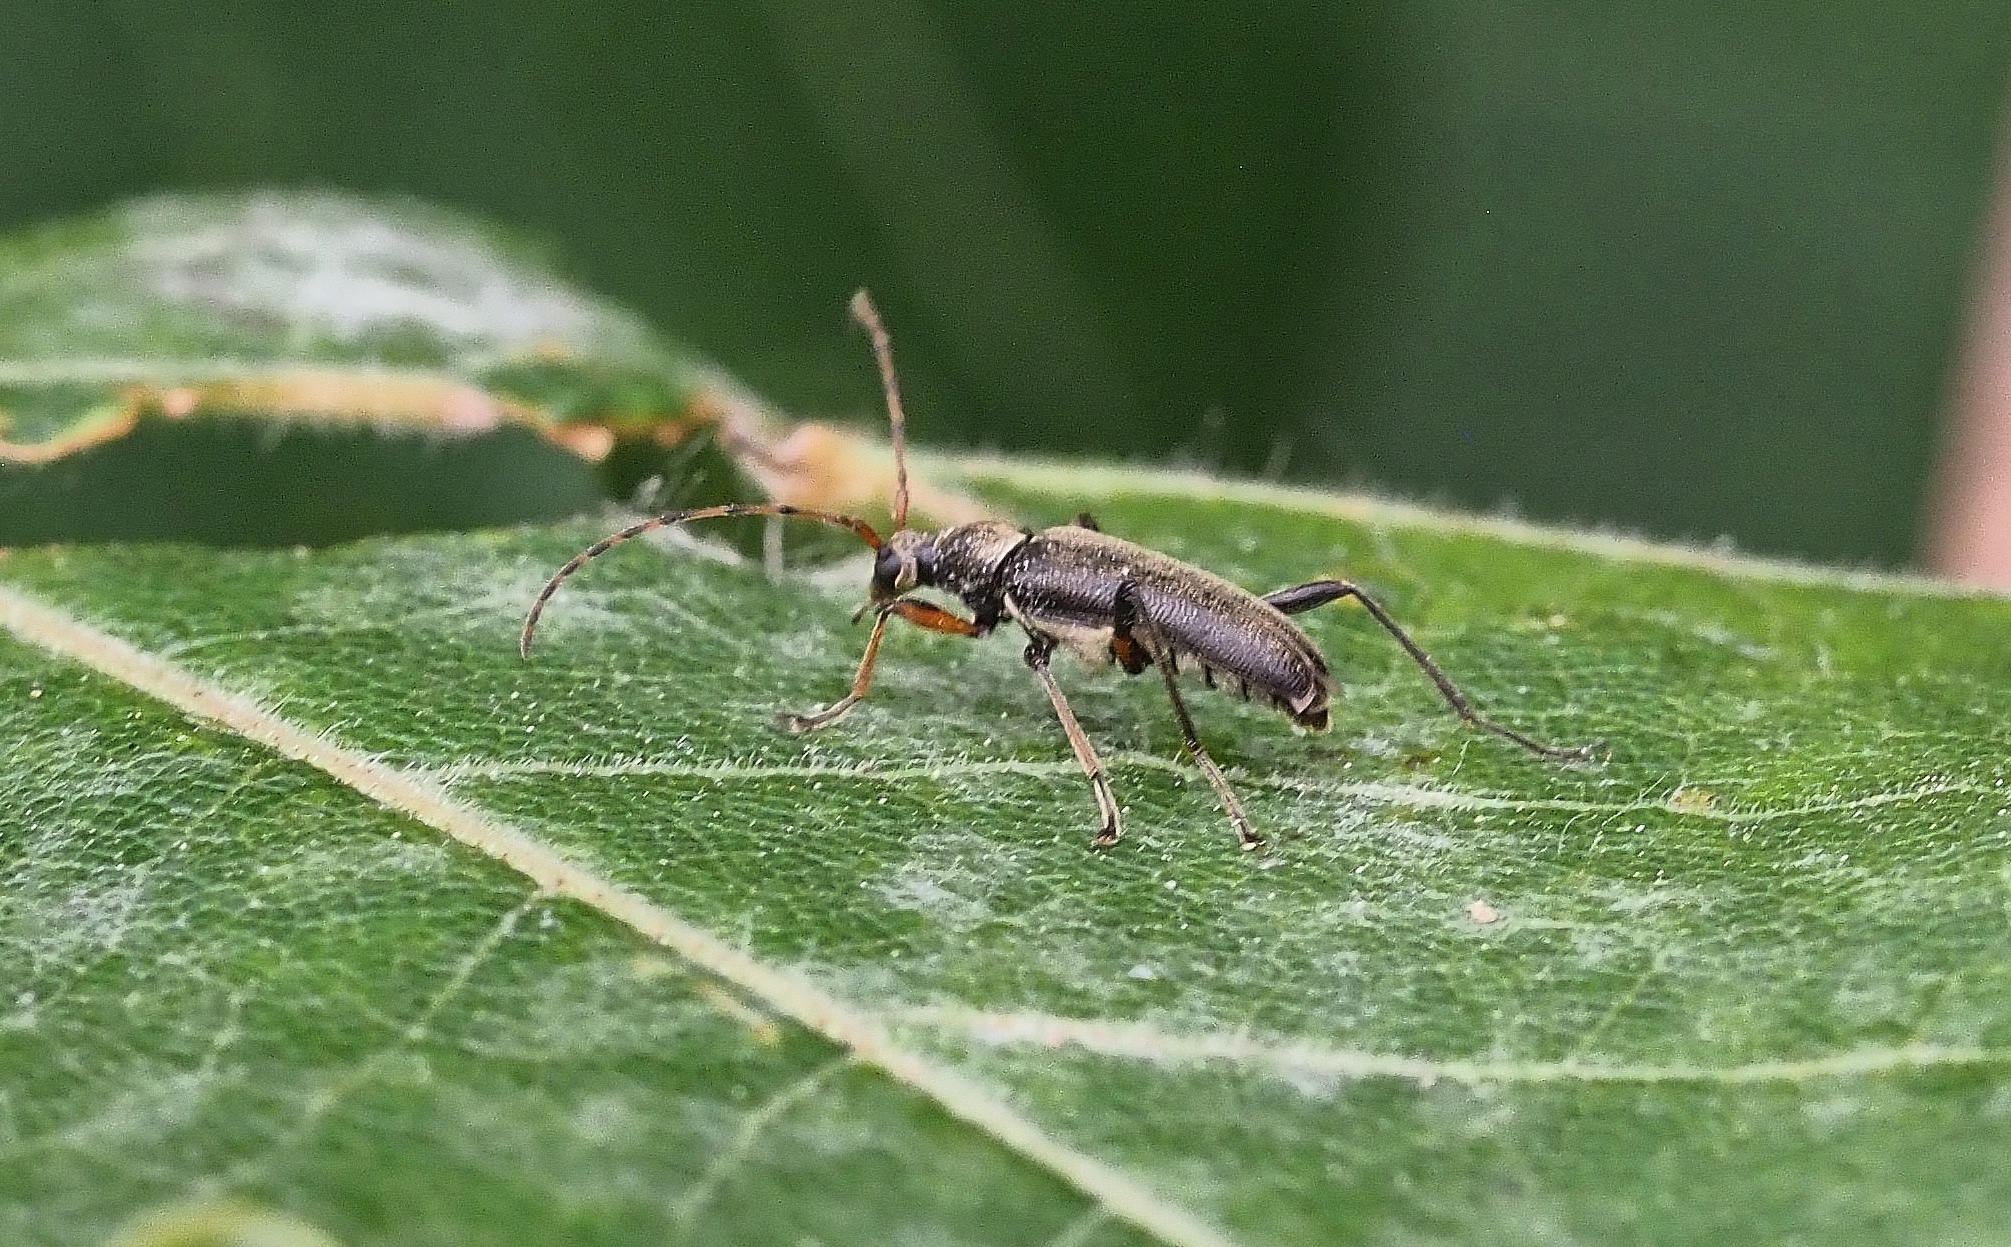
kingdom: Animalia
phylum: Arthropoda
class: Insecta
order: Coleoptera
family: Cerambycidae
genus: Grammoptera
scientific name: Grammoptera ruficornis
